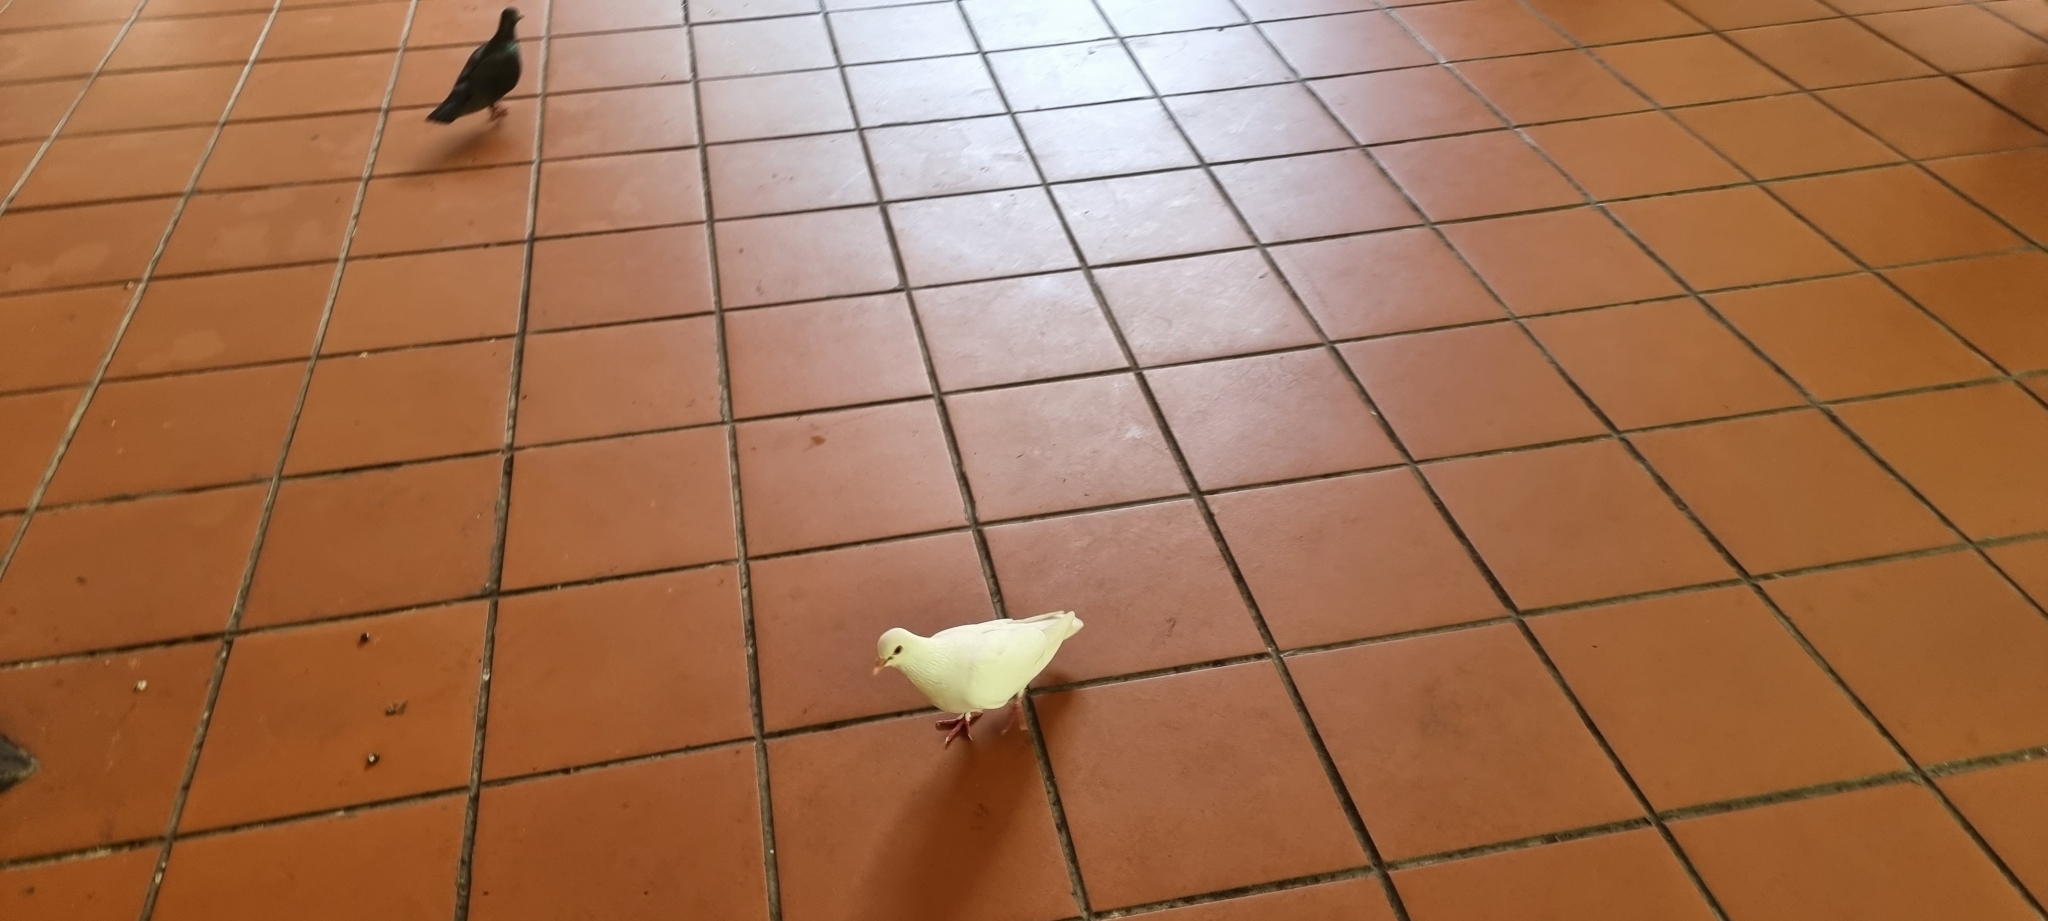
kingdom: Animalia
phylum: Chordata
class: Aves
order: Columbiformes
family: Columbidae
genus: Columba
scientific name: Columba livia
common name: Rock pigeon
